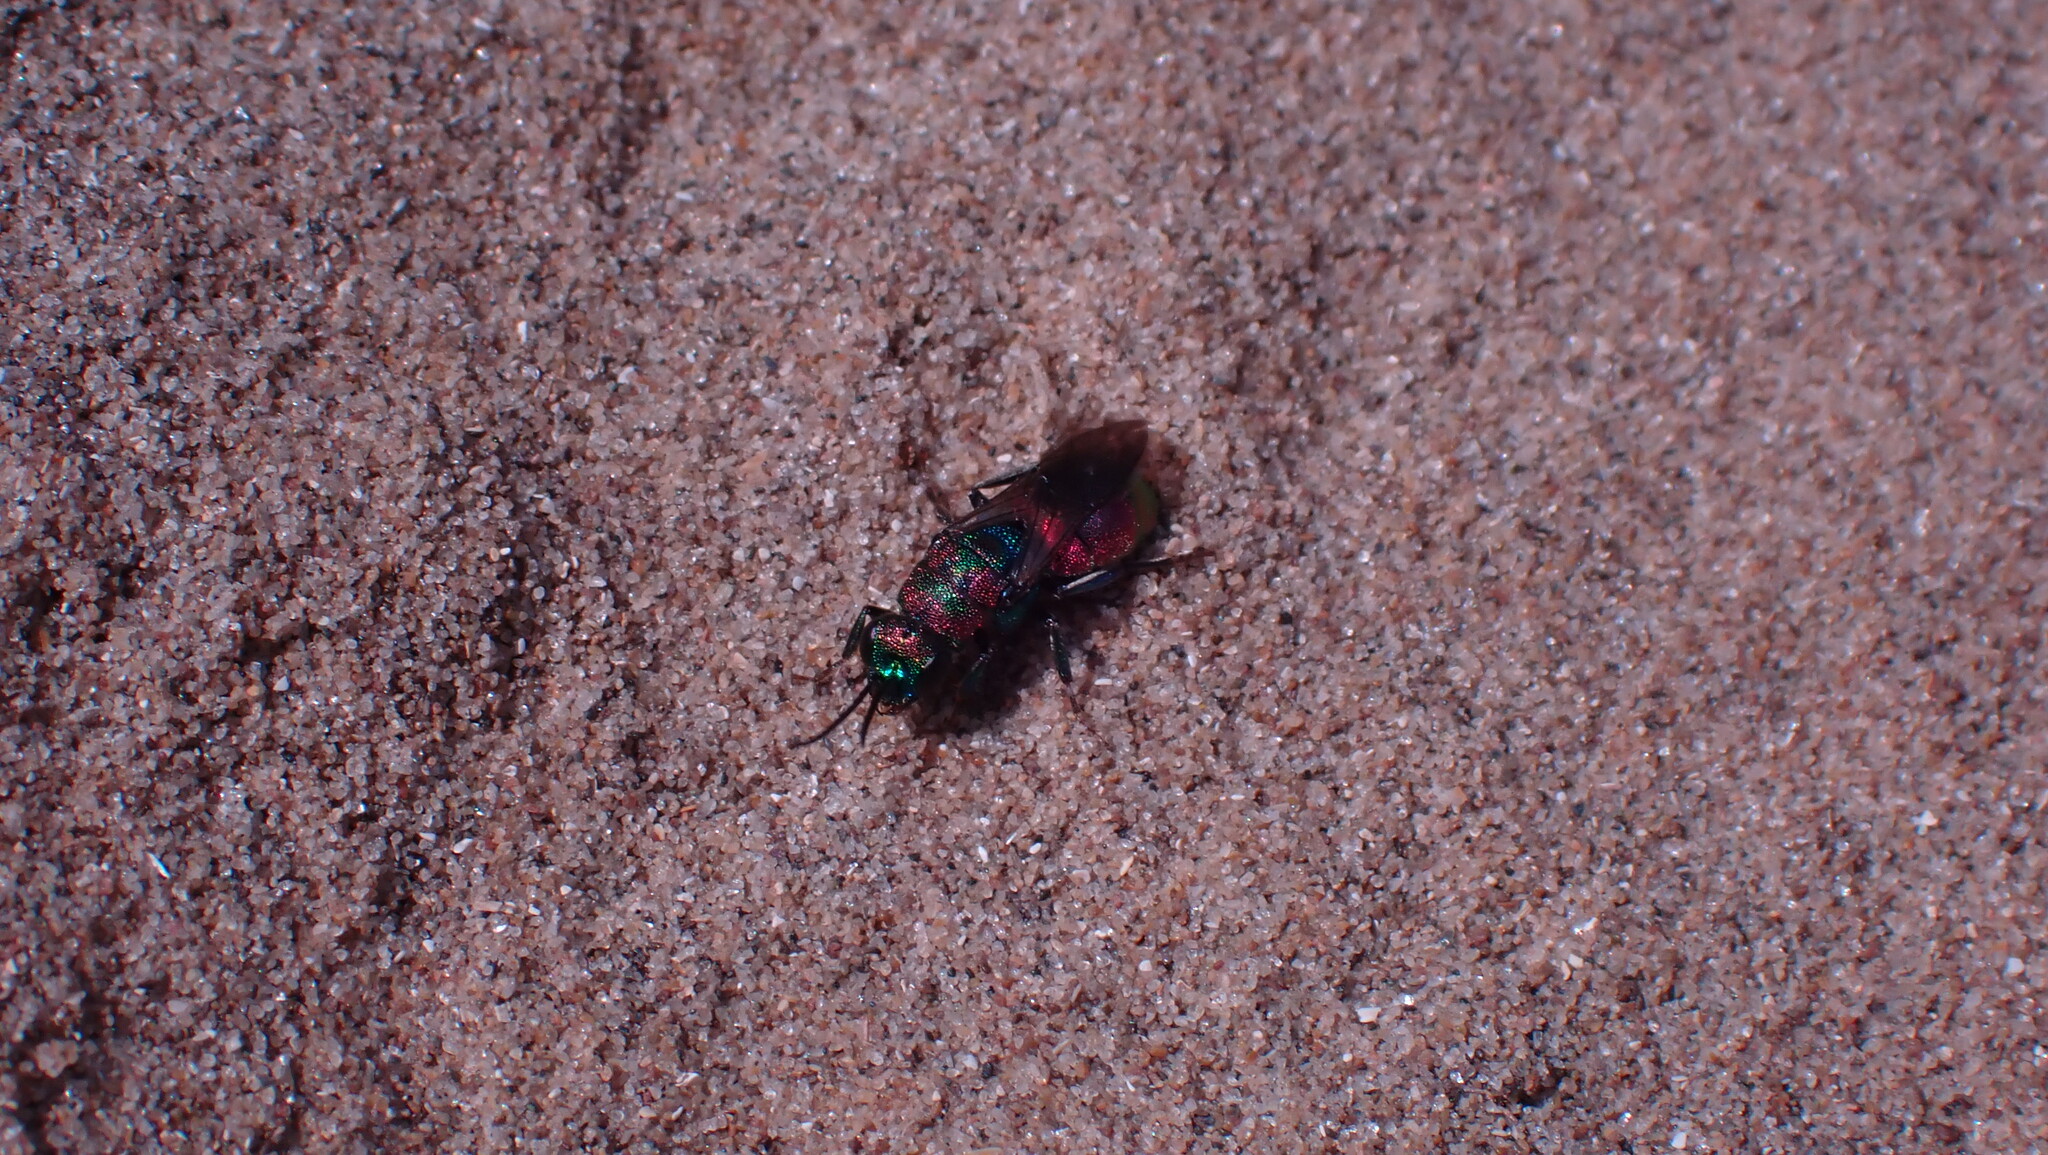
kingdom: Animalia
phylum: Arthropoda
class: Insecta
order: Hymenoptera
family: Chrysididae
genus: Hedychrum
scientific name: Hedychrum rutilans
